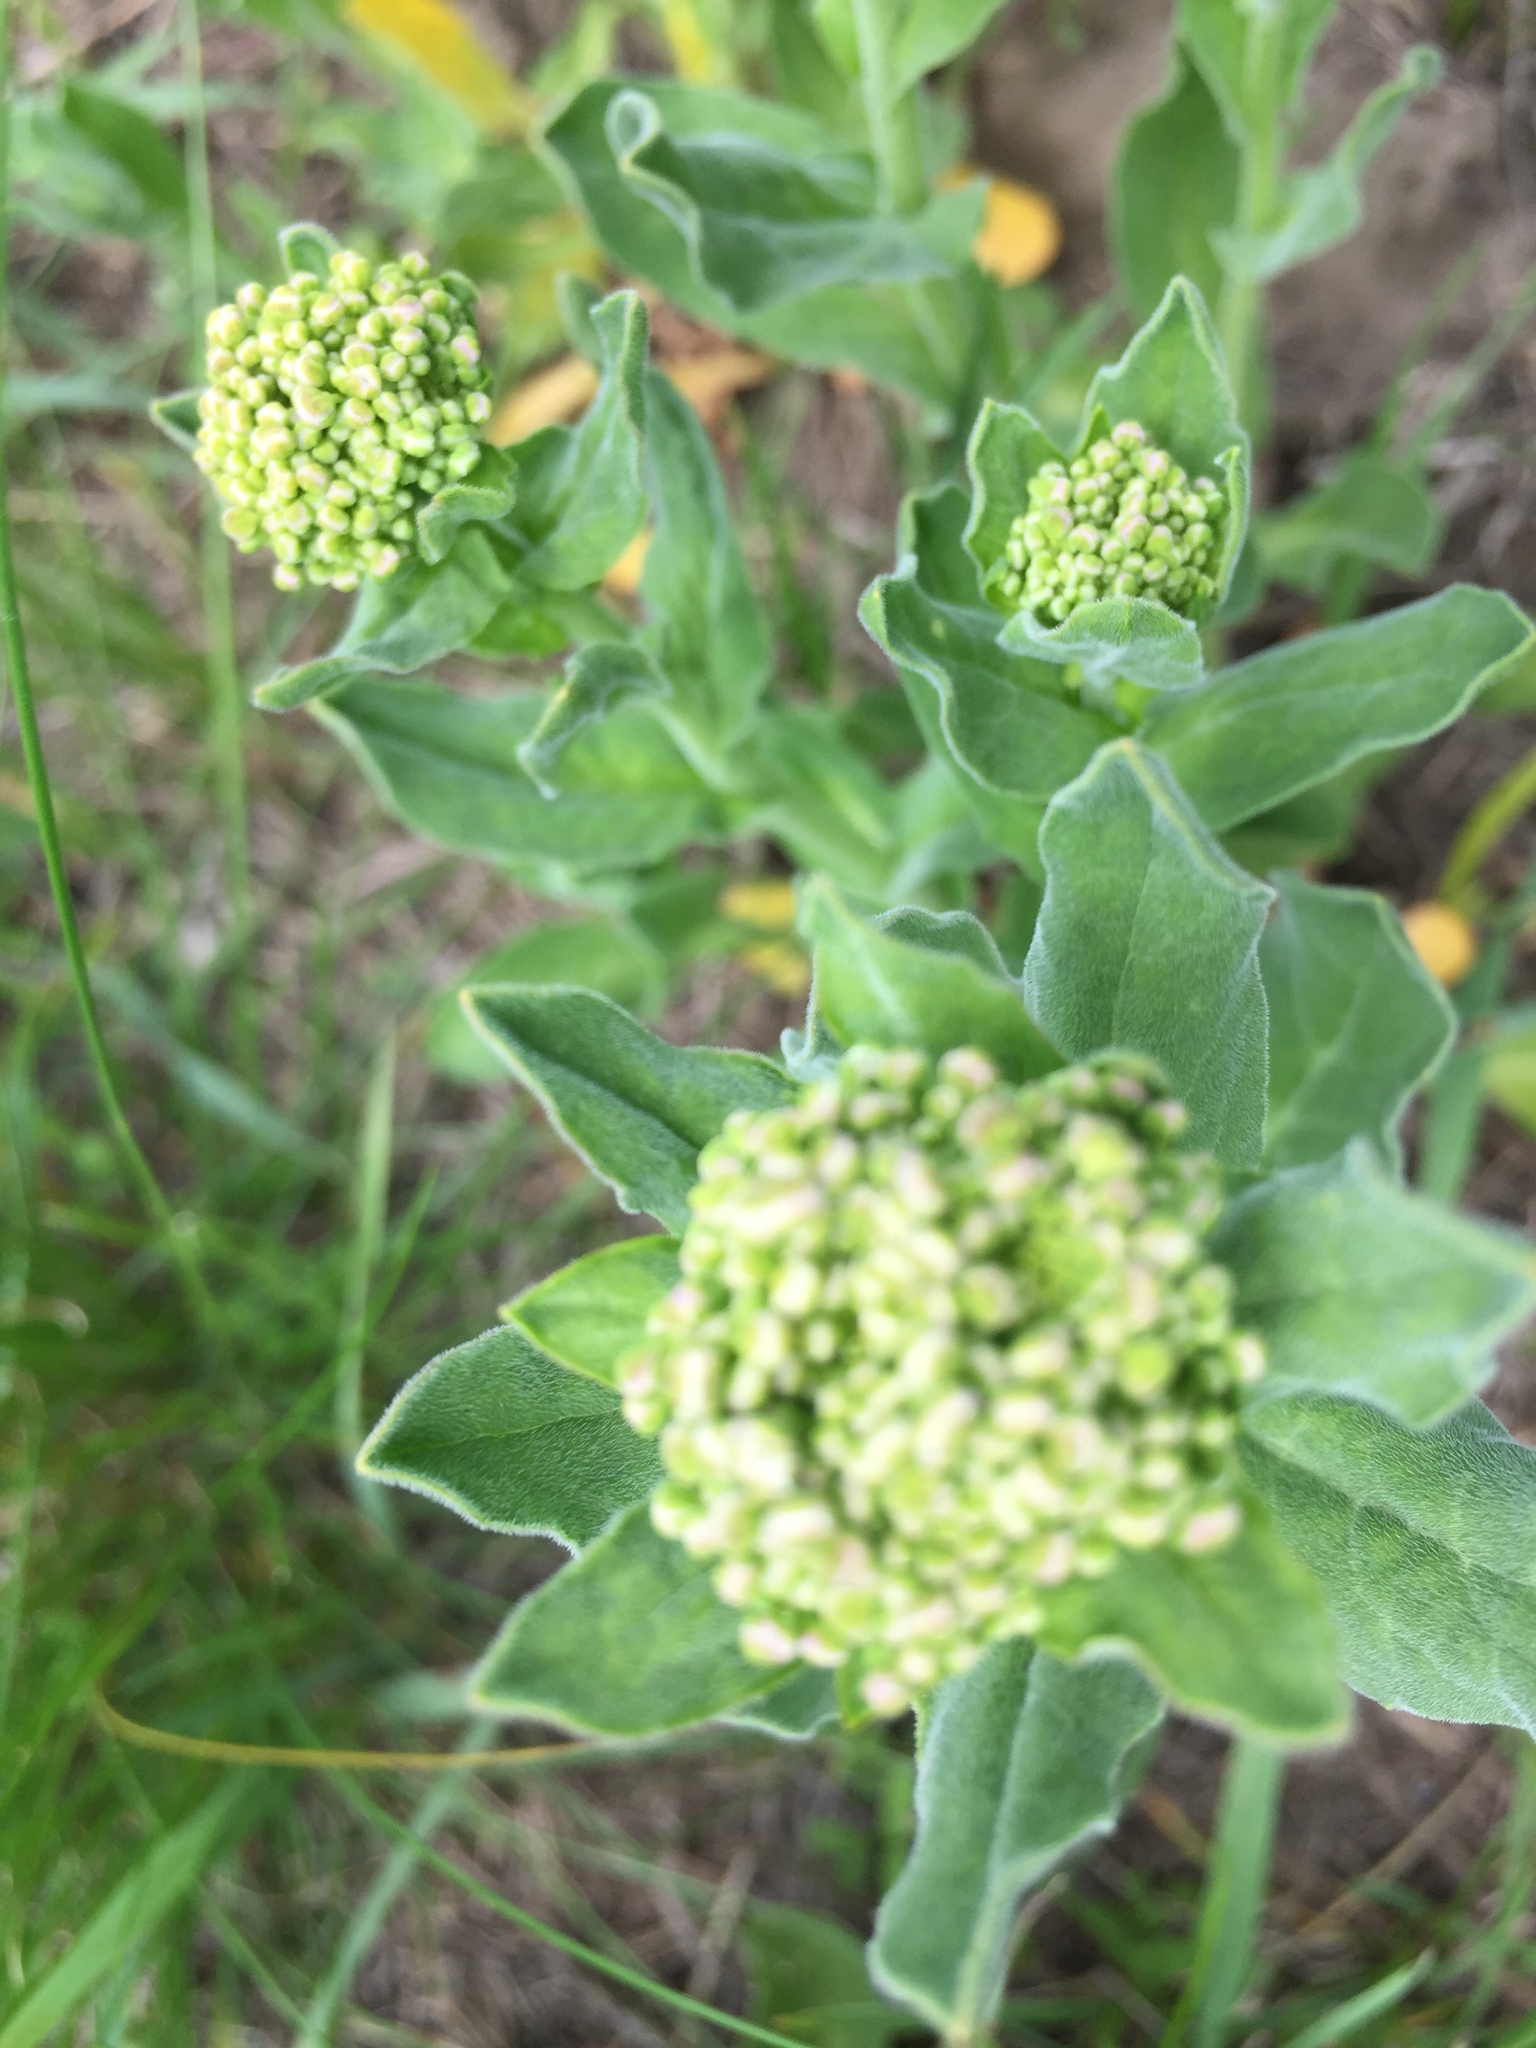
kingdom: Plantae
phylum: Tracheophyta
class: Magnoliopsida
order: Brassicales
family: Brassicaceae
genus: Lepidium
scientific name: Lepidium draba
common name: Hoary cress
